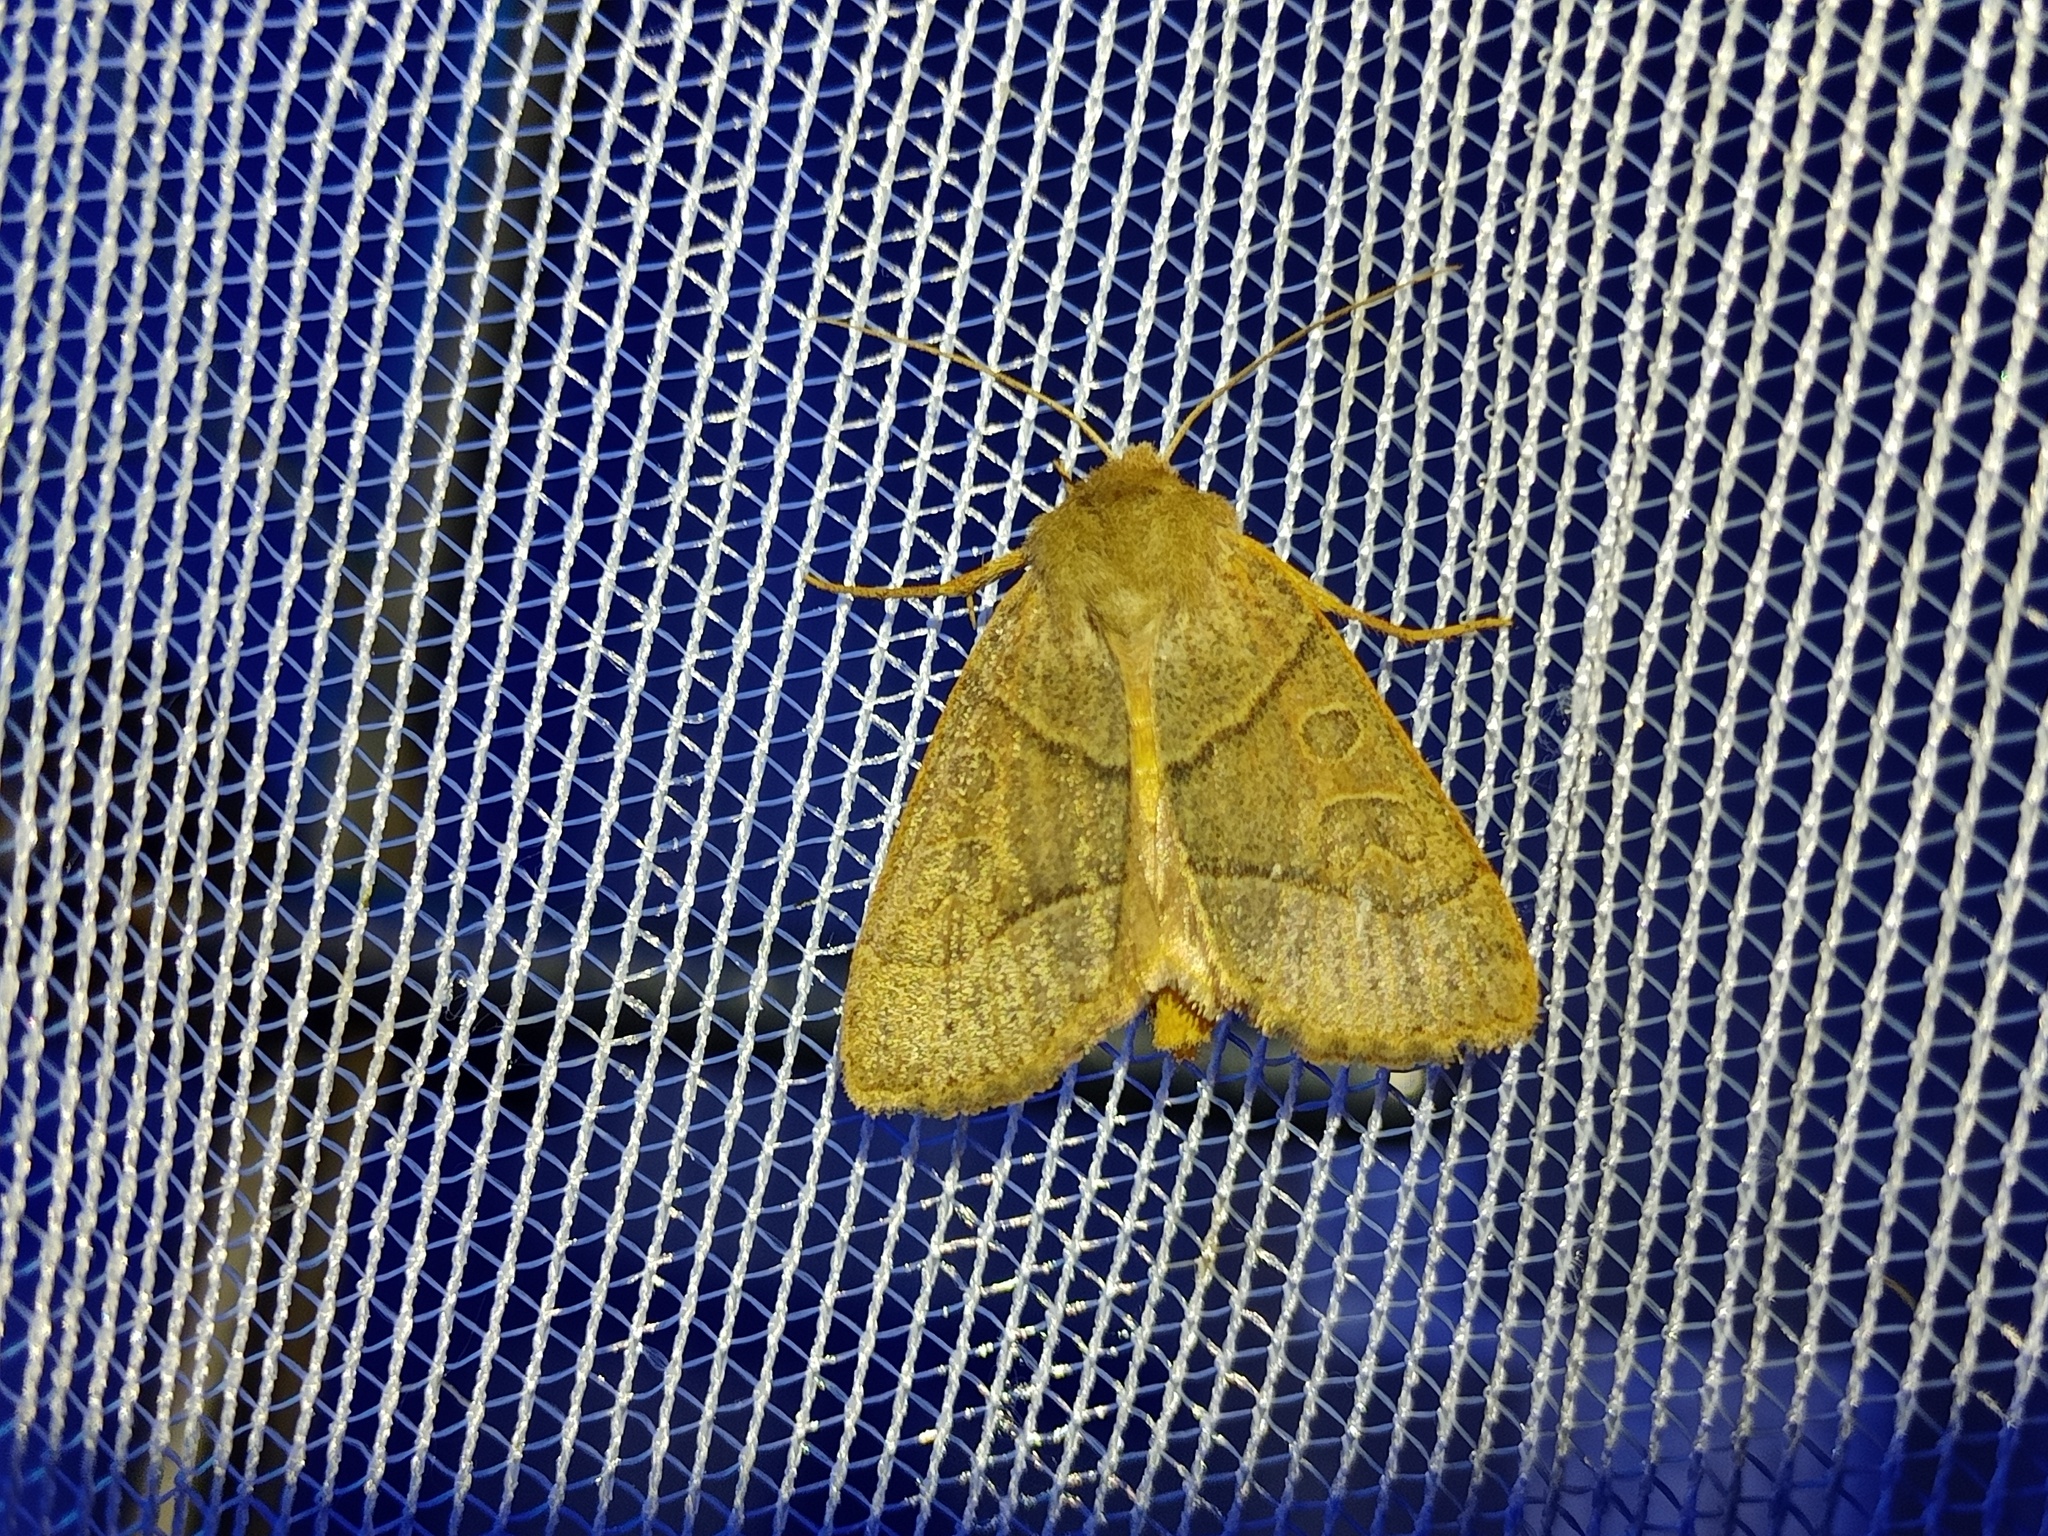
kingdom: Animalia
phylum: Arthropoda
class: Insecta
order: Lepidoptera
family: Noctuidae
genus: Mesogona
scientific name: Mesogona acetosellae
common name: Pale stigma
